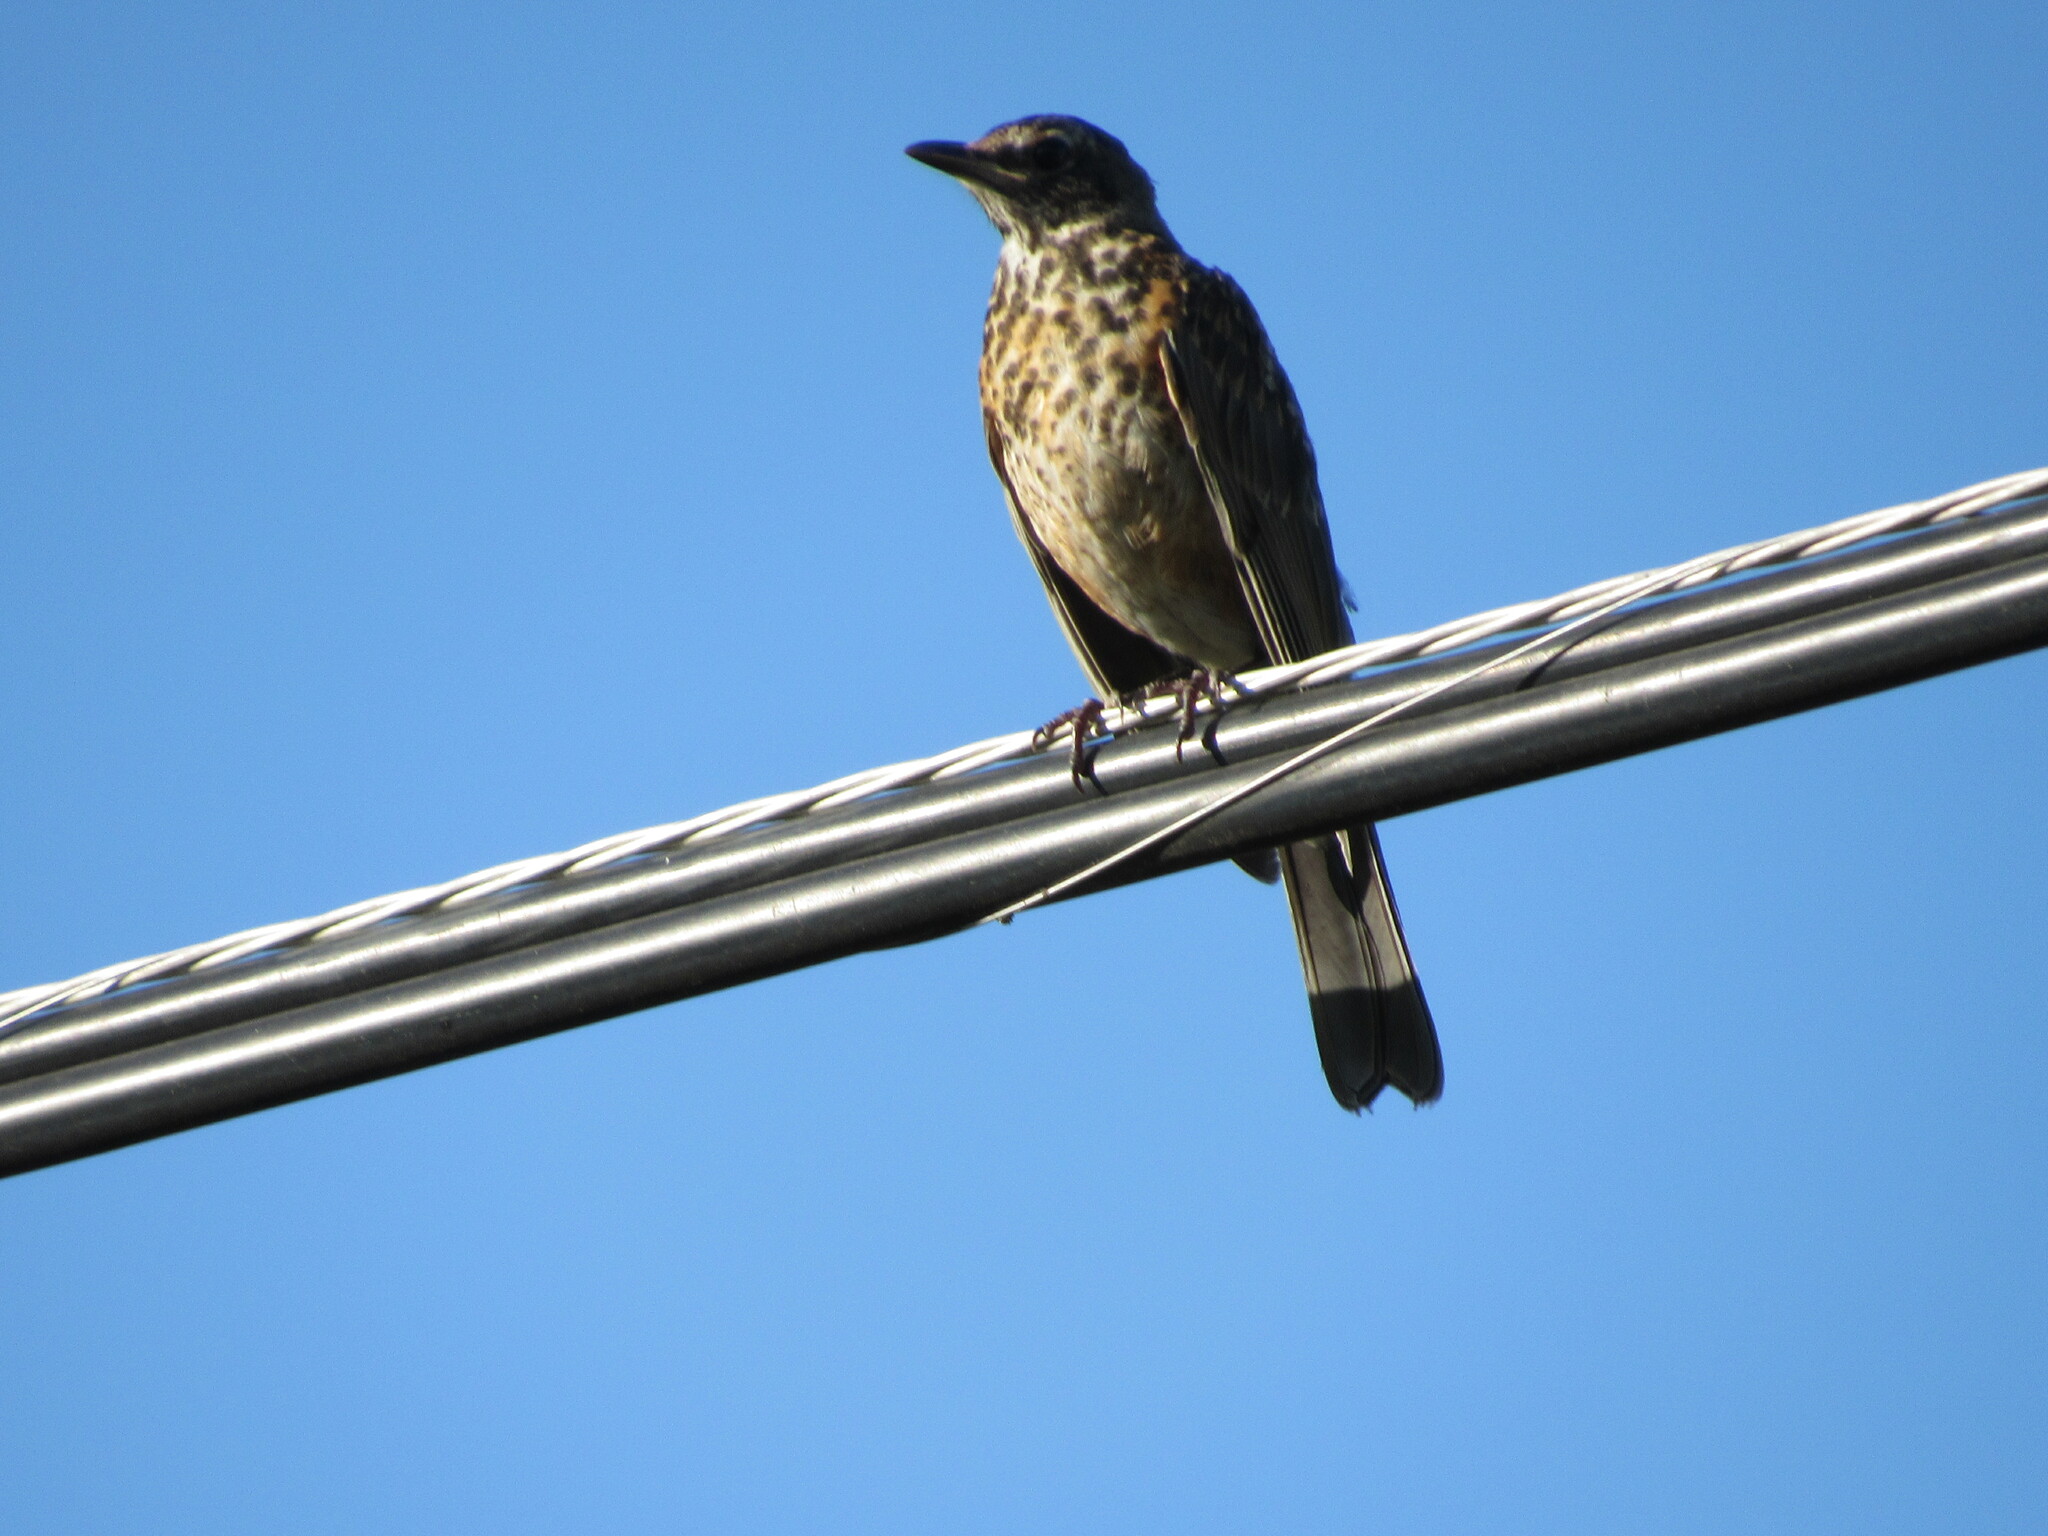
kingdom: Animalia
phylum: Chordata
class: Aves
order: Passeriformes
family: Turdidae
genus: Turdus
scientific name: Turdus migratorius
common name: American robin
